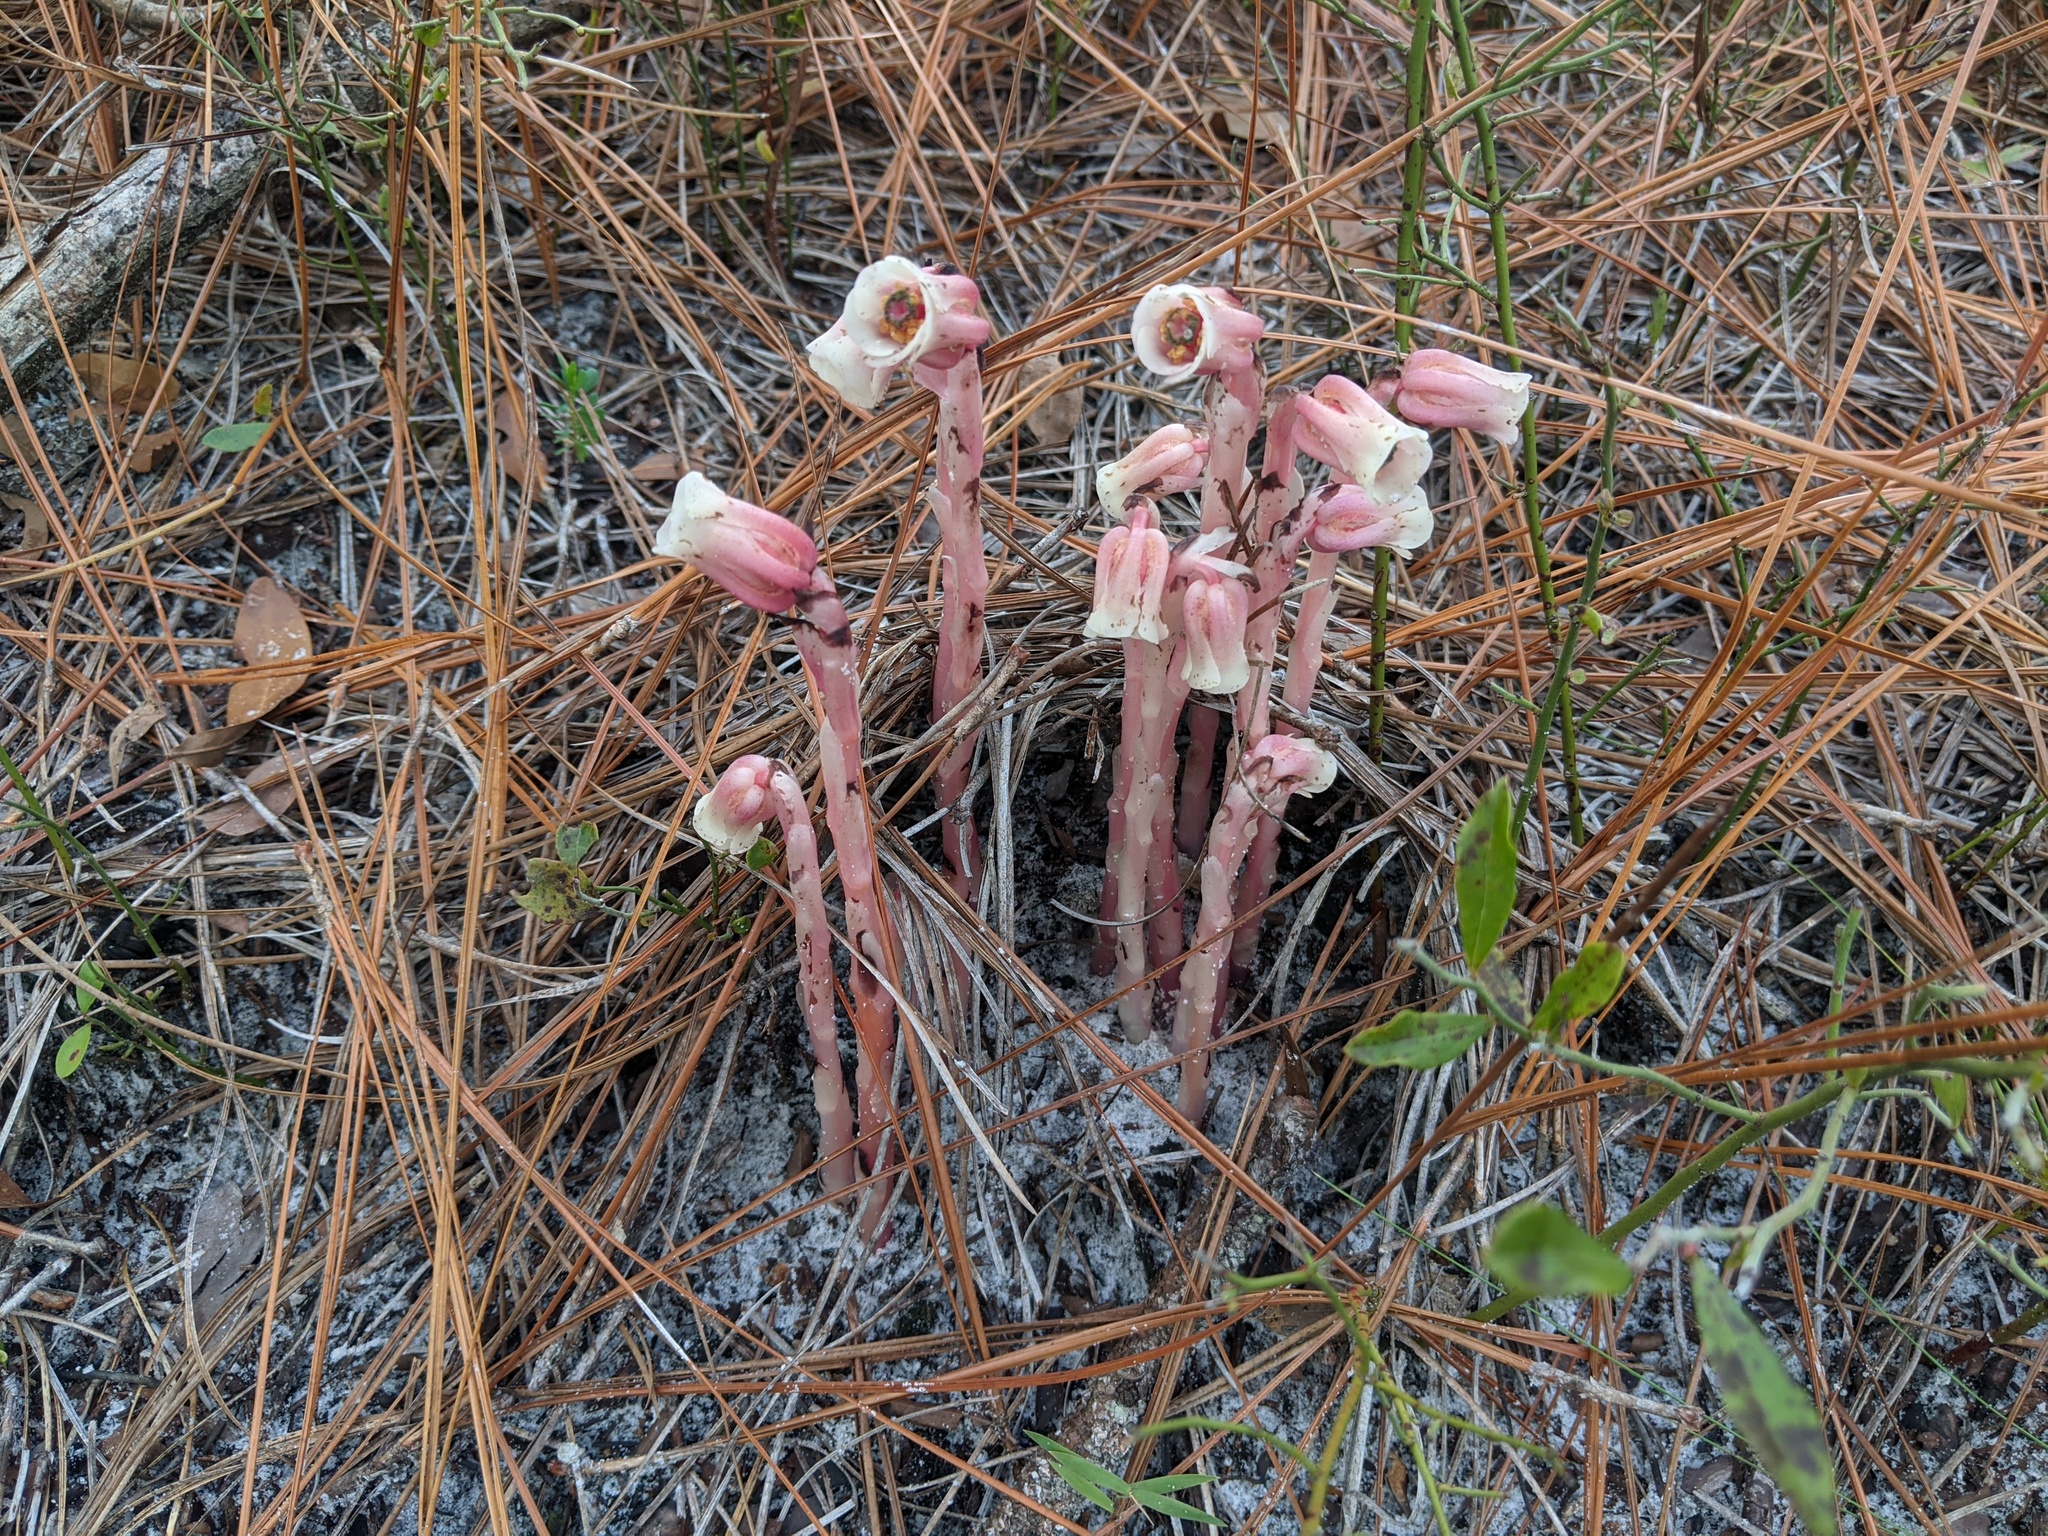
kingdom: Plantae
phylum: Tracheophyta
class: Magnoliopsida
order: Ericales
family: Ericaceae
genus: Monotropa
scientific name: Monotropa uniflora
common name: Convulsion root
